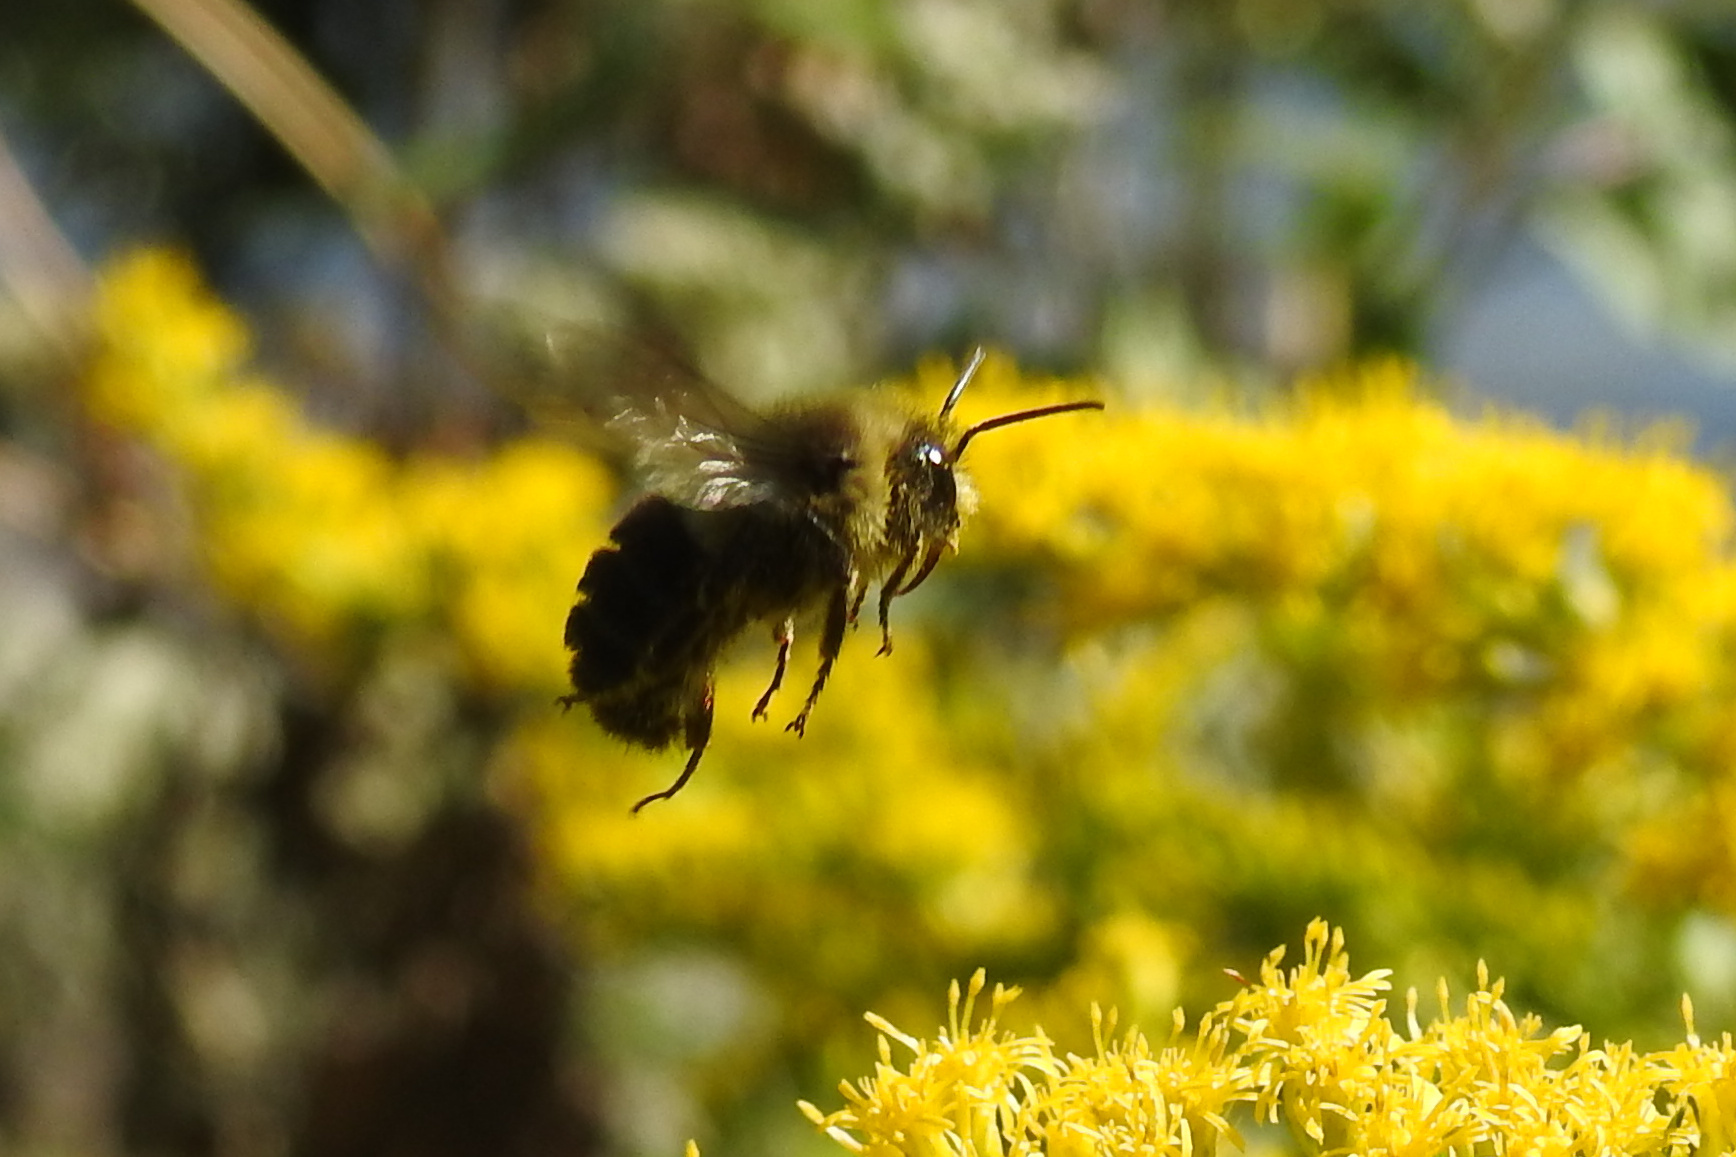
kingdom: Animalia
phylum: Arthropoda
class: Insecta
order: Hymenoptera
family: Apidae
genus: Bombus
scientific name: Bombus impatiens
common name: Common eastern bumble bee
